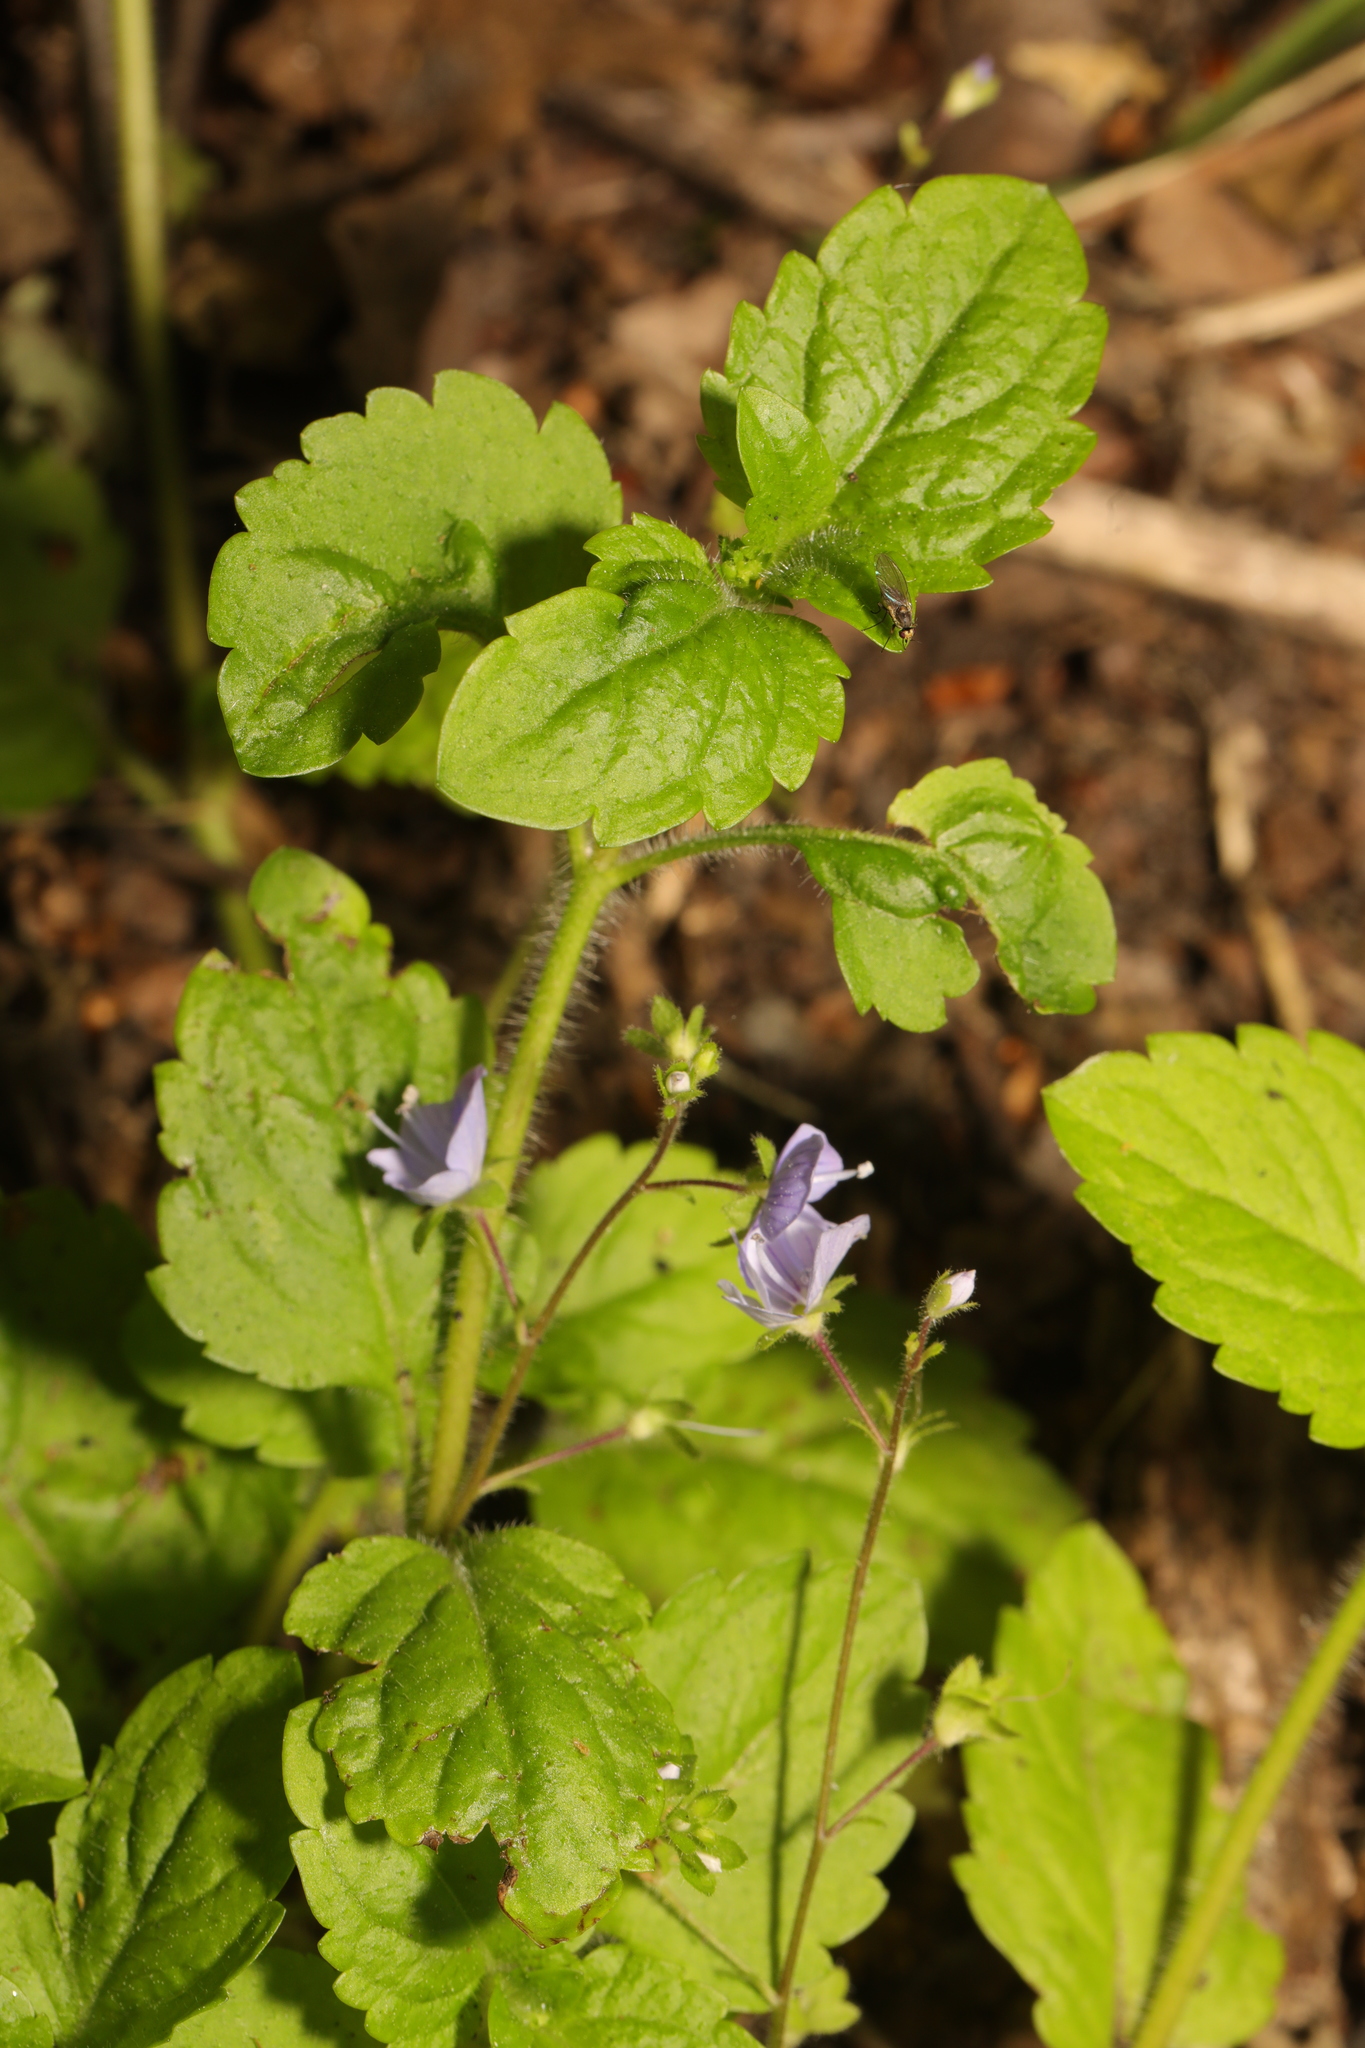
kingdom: Plantae
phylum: Tracheophyta
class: Magnoliopsida
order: Lamiales
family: Plantaginaceae
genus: Veronica
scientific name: Veronica montana
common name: Wood speedwell
